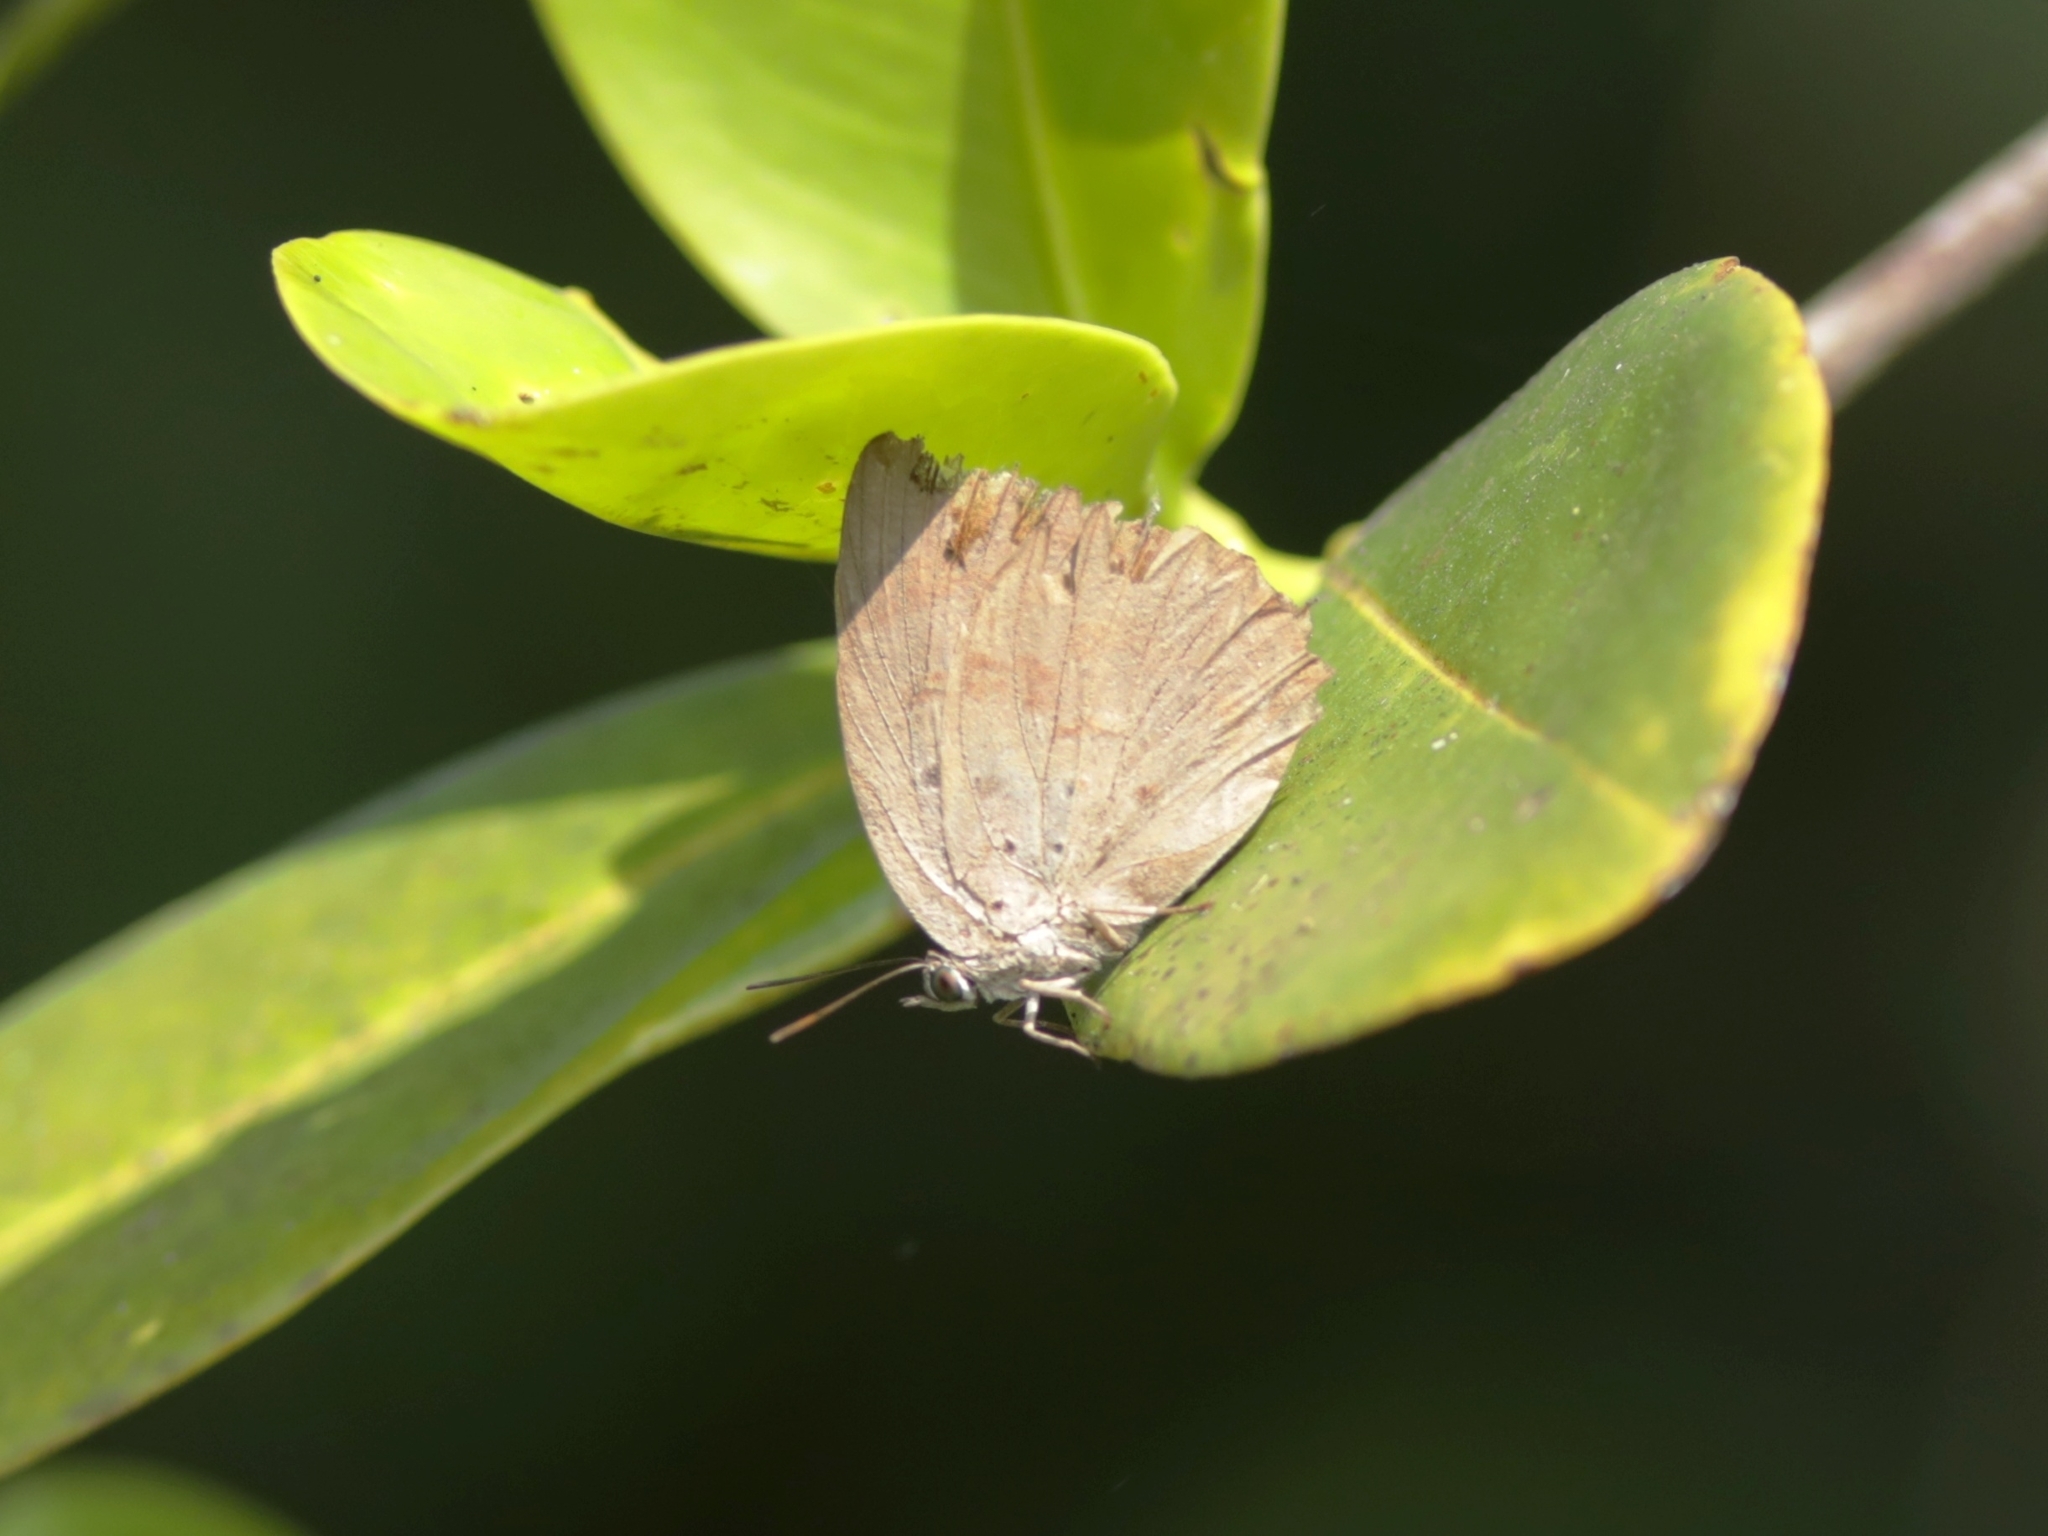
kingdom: Animalia
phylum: Arthropoda
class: Insecta
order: Lepidoptera
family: Lycaenidae
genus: Arhopala
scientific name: Arhopala alea
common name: Kanara oakblue
